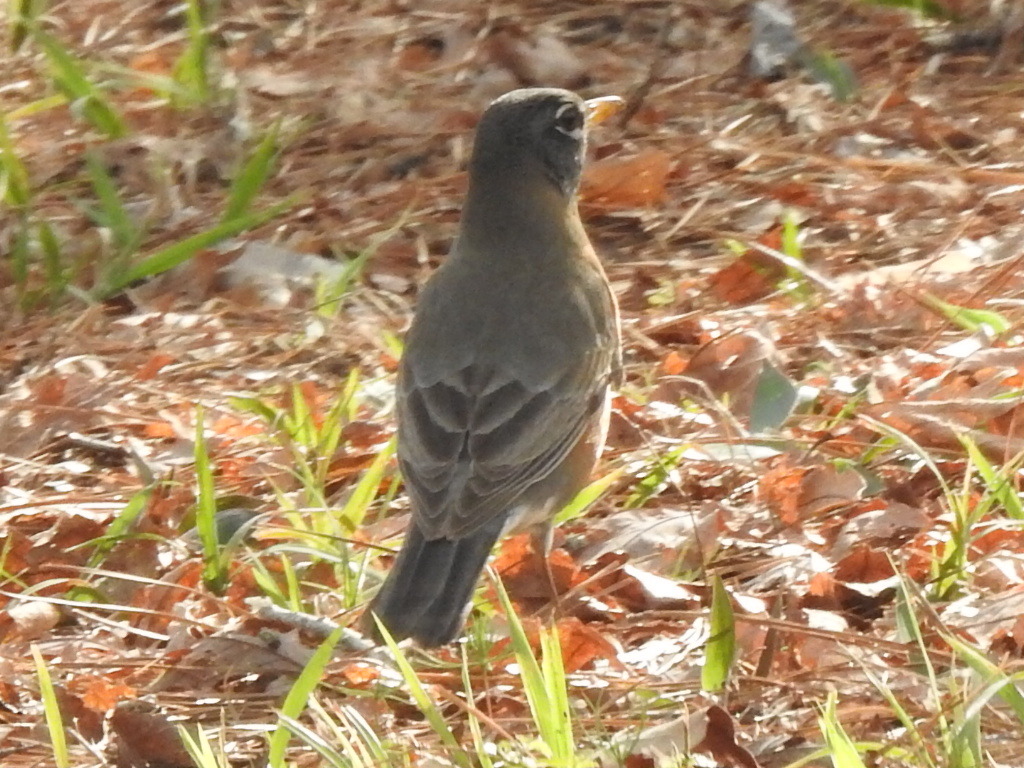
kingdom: Animalia
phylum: Chordata
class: Aves
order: Passeriformes
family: Turdidae
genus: Turdus
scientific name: Turdus migratorius
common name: American robin
